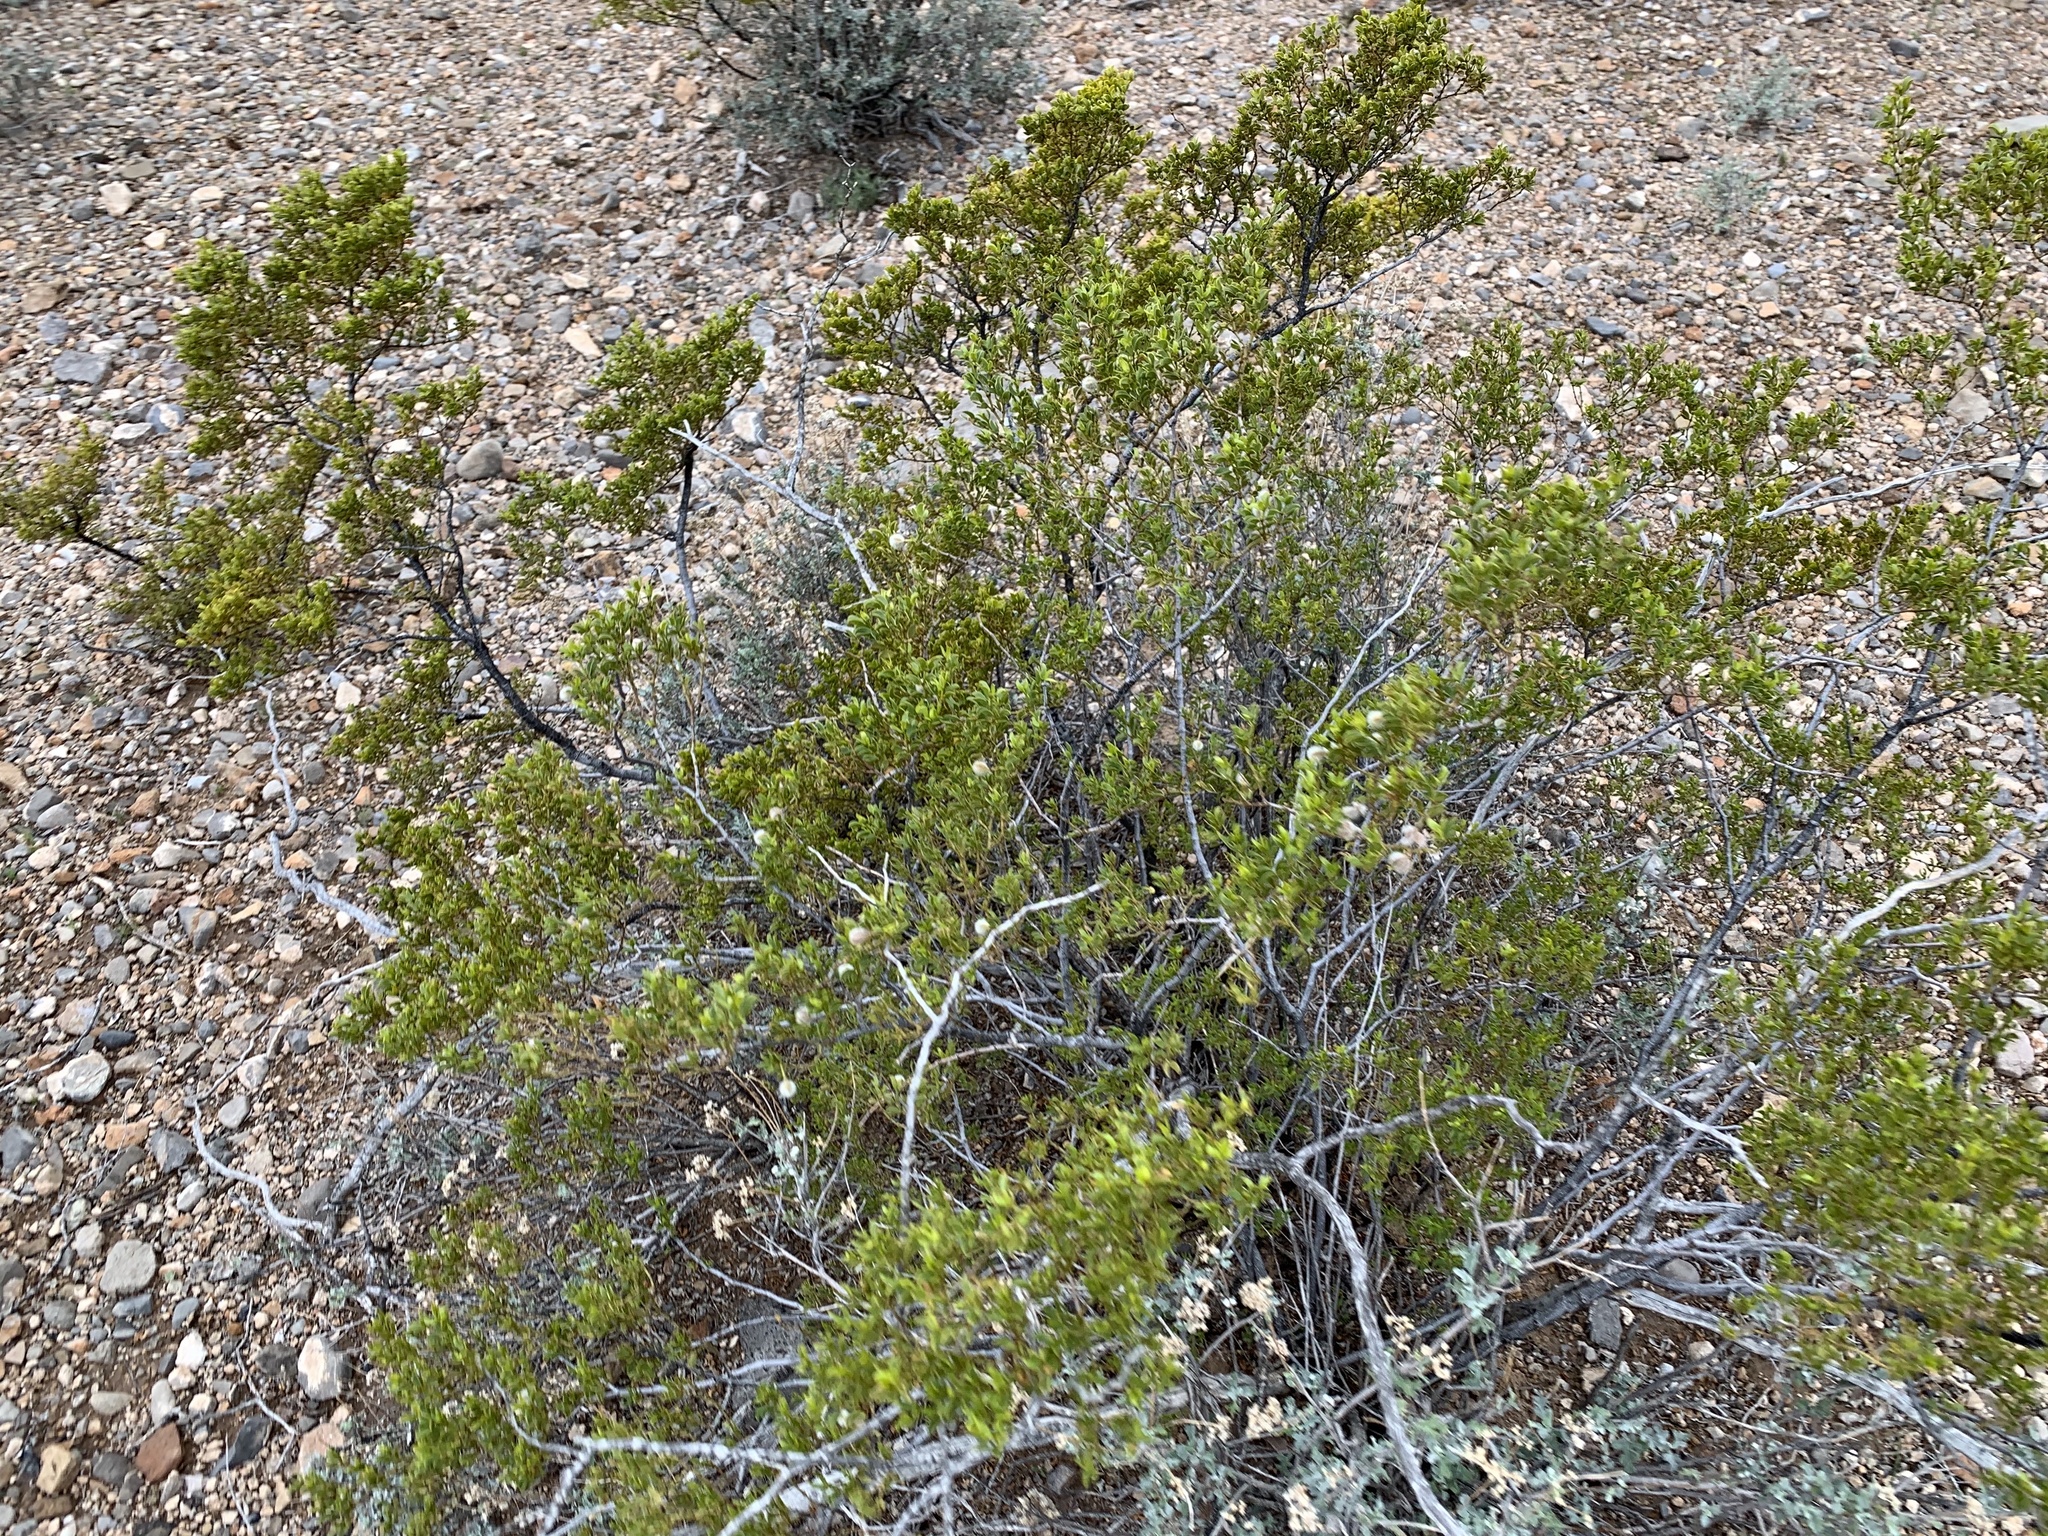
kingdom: Plantae
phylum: Tracheophyta
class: Magnoliopsida
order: Zygophyllales
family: Zygophyllaceae
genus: Larrea
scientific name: Larrea tridentata
